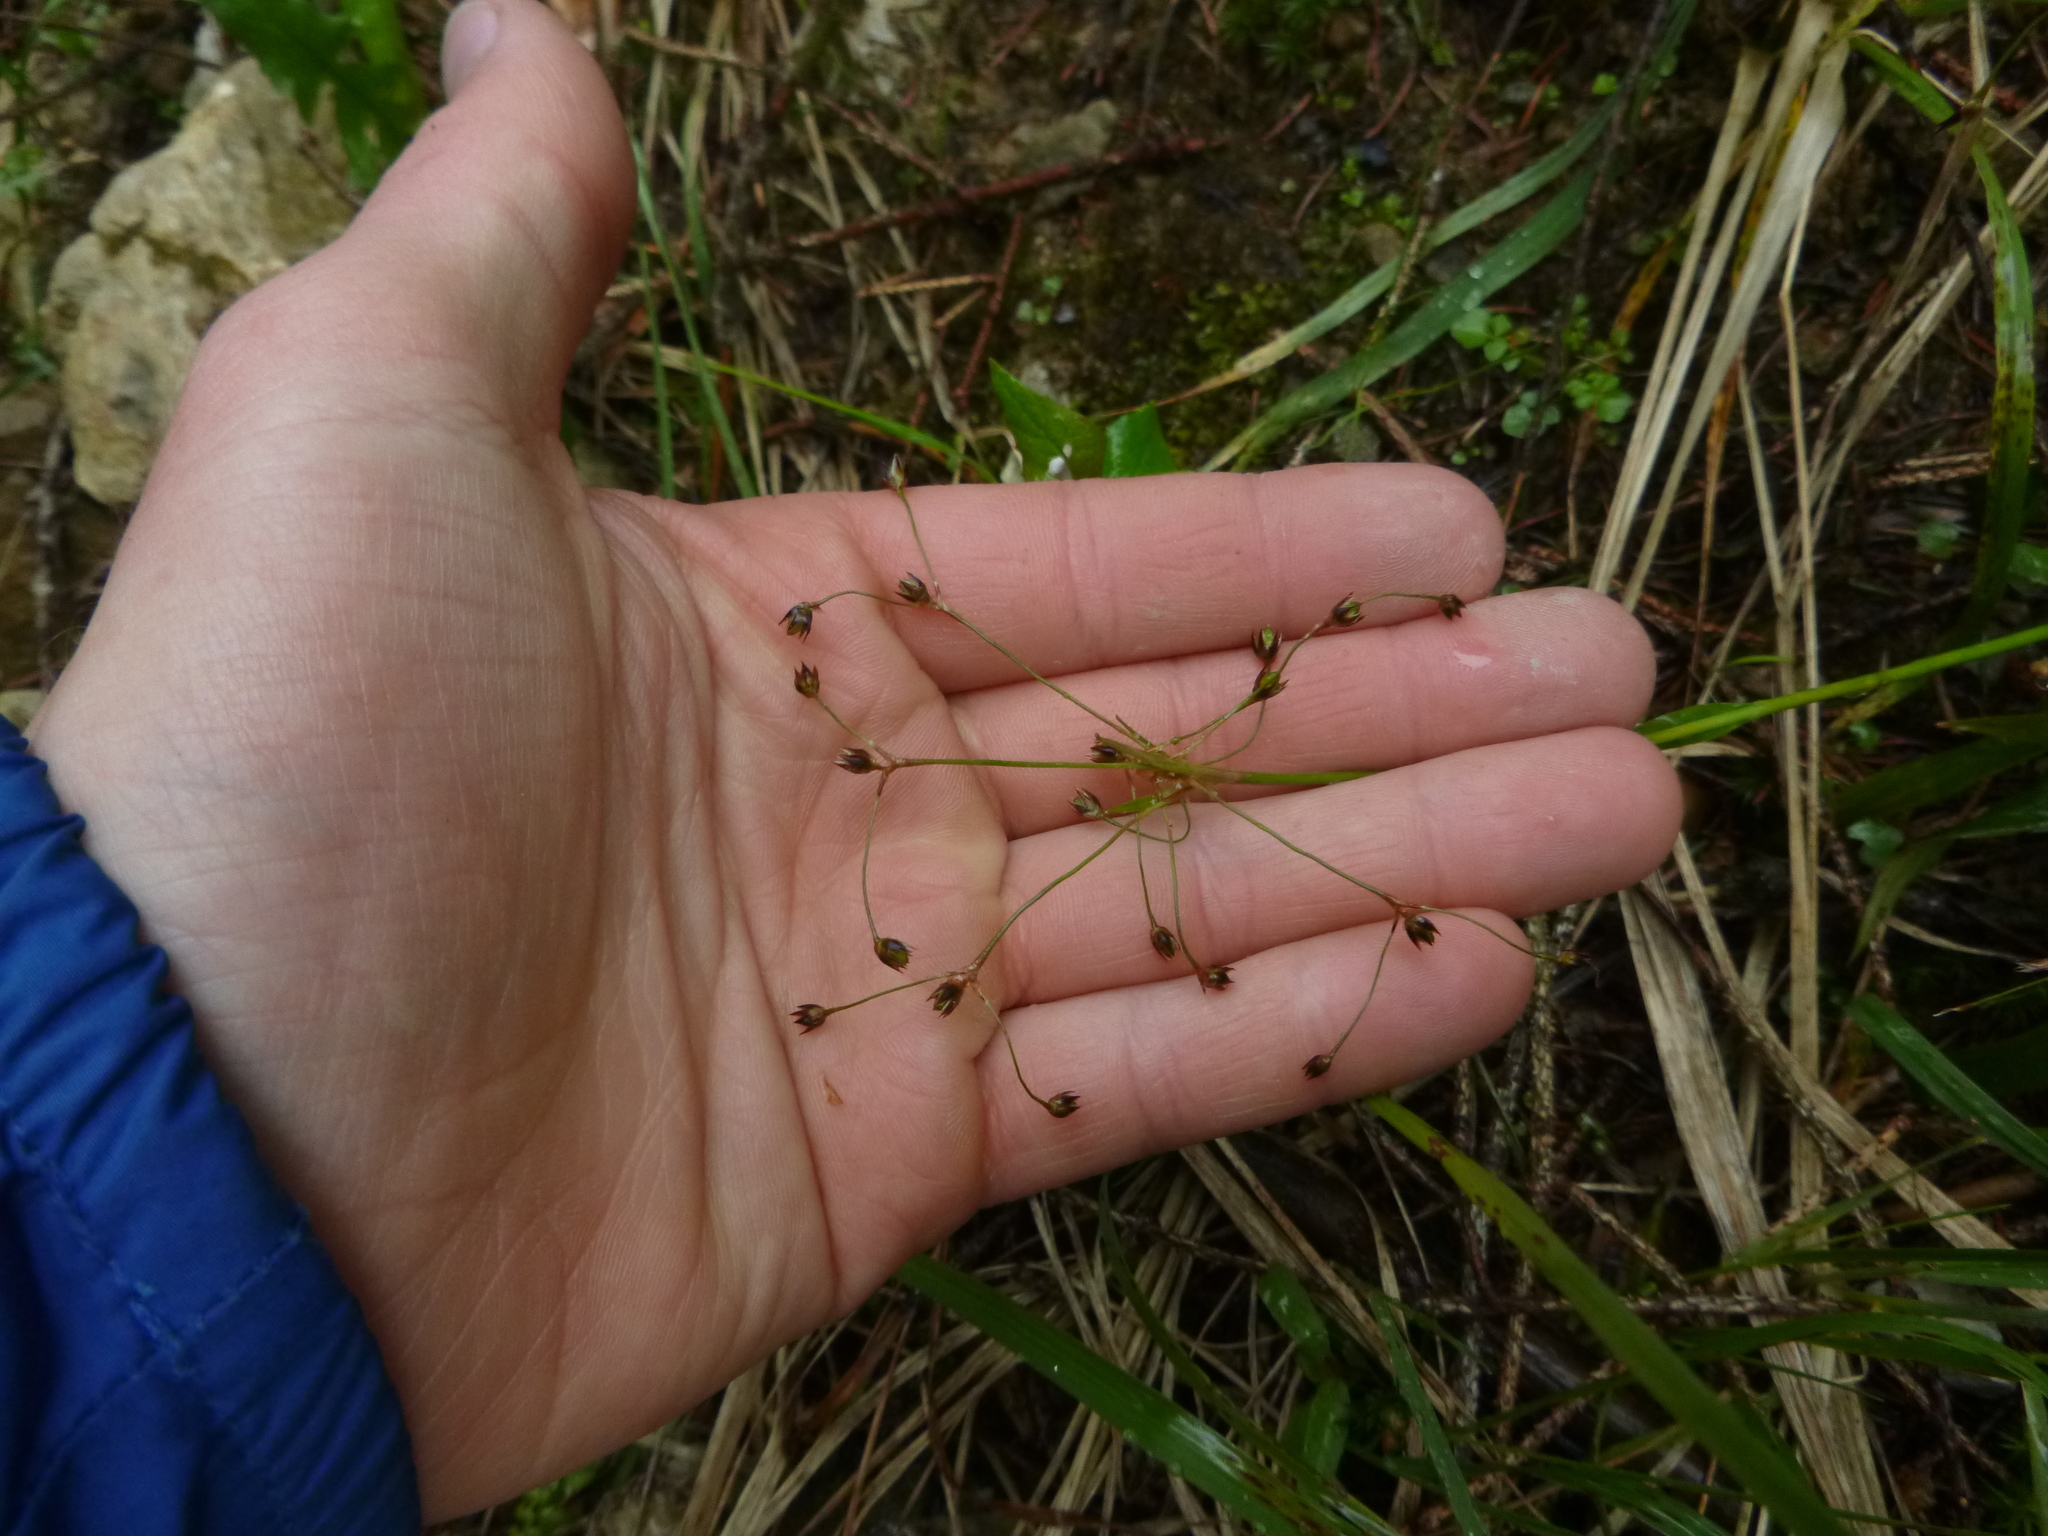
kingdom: Plantae
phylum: Tracheophyta
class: Liliopsida
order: Poales
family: Juncaceae
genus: Luzula
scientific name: Luzula pilosa
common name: Hairy wood-rush
